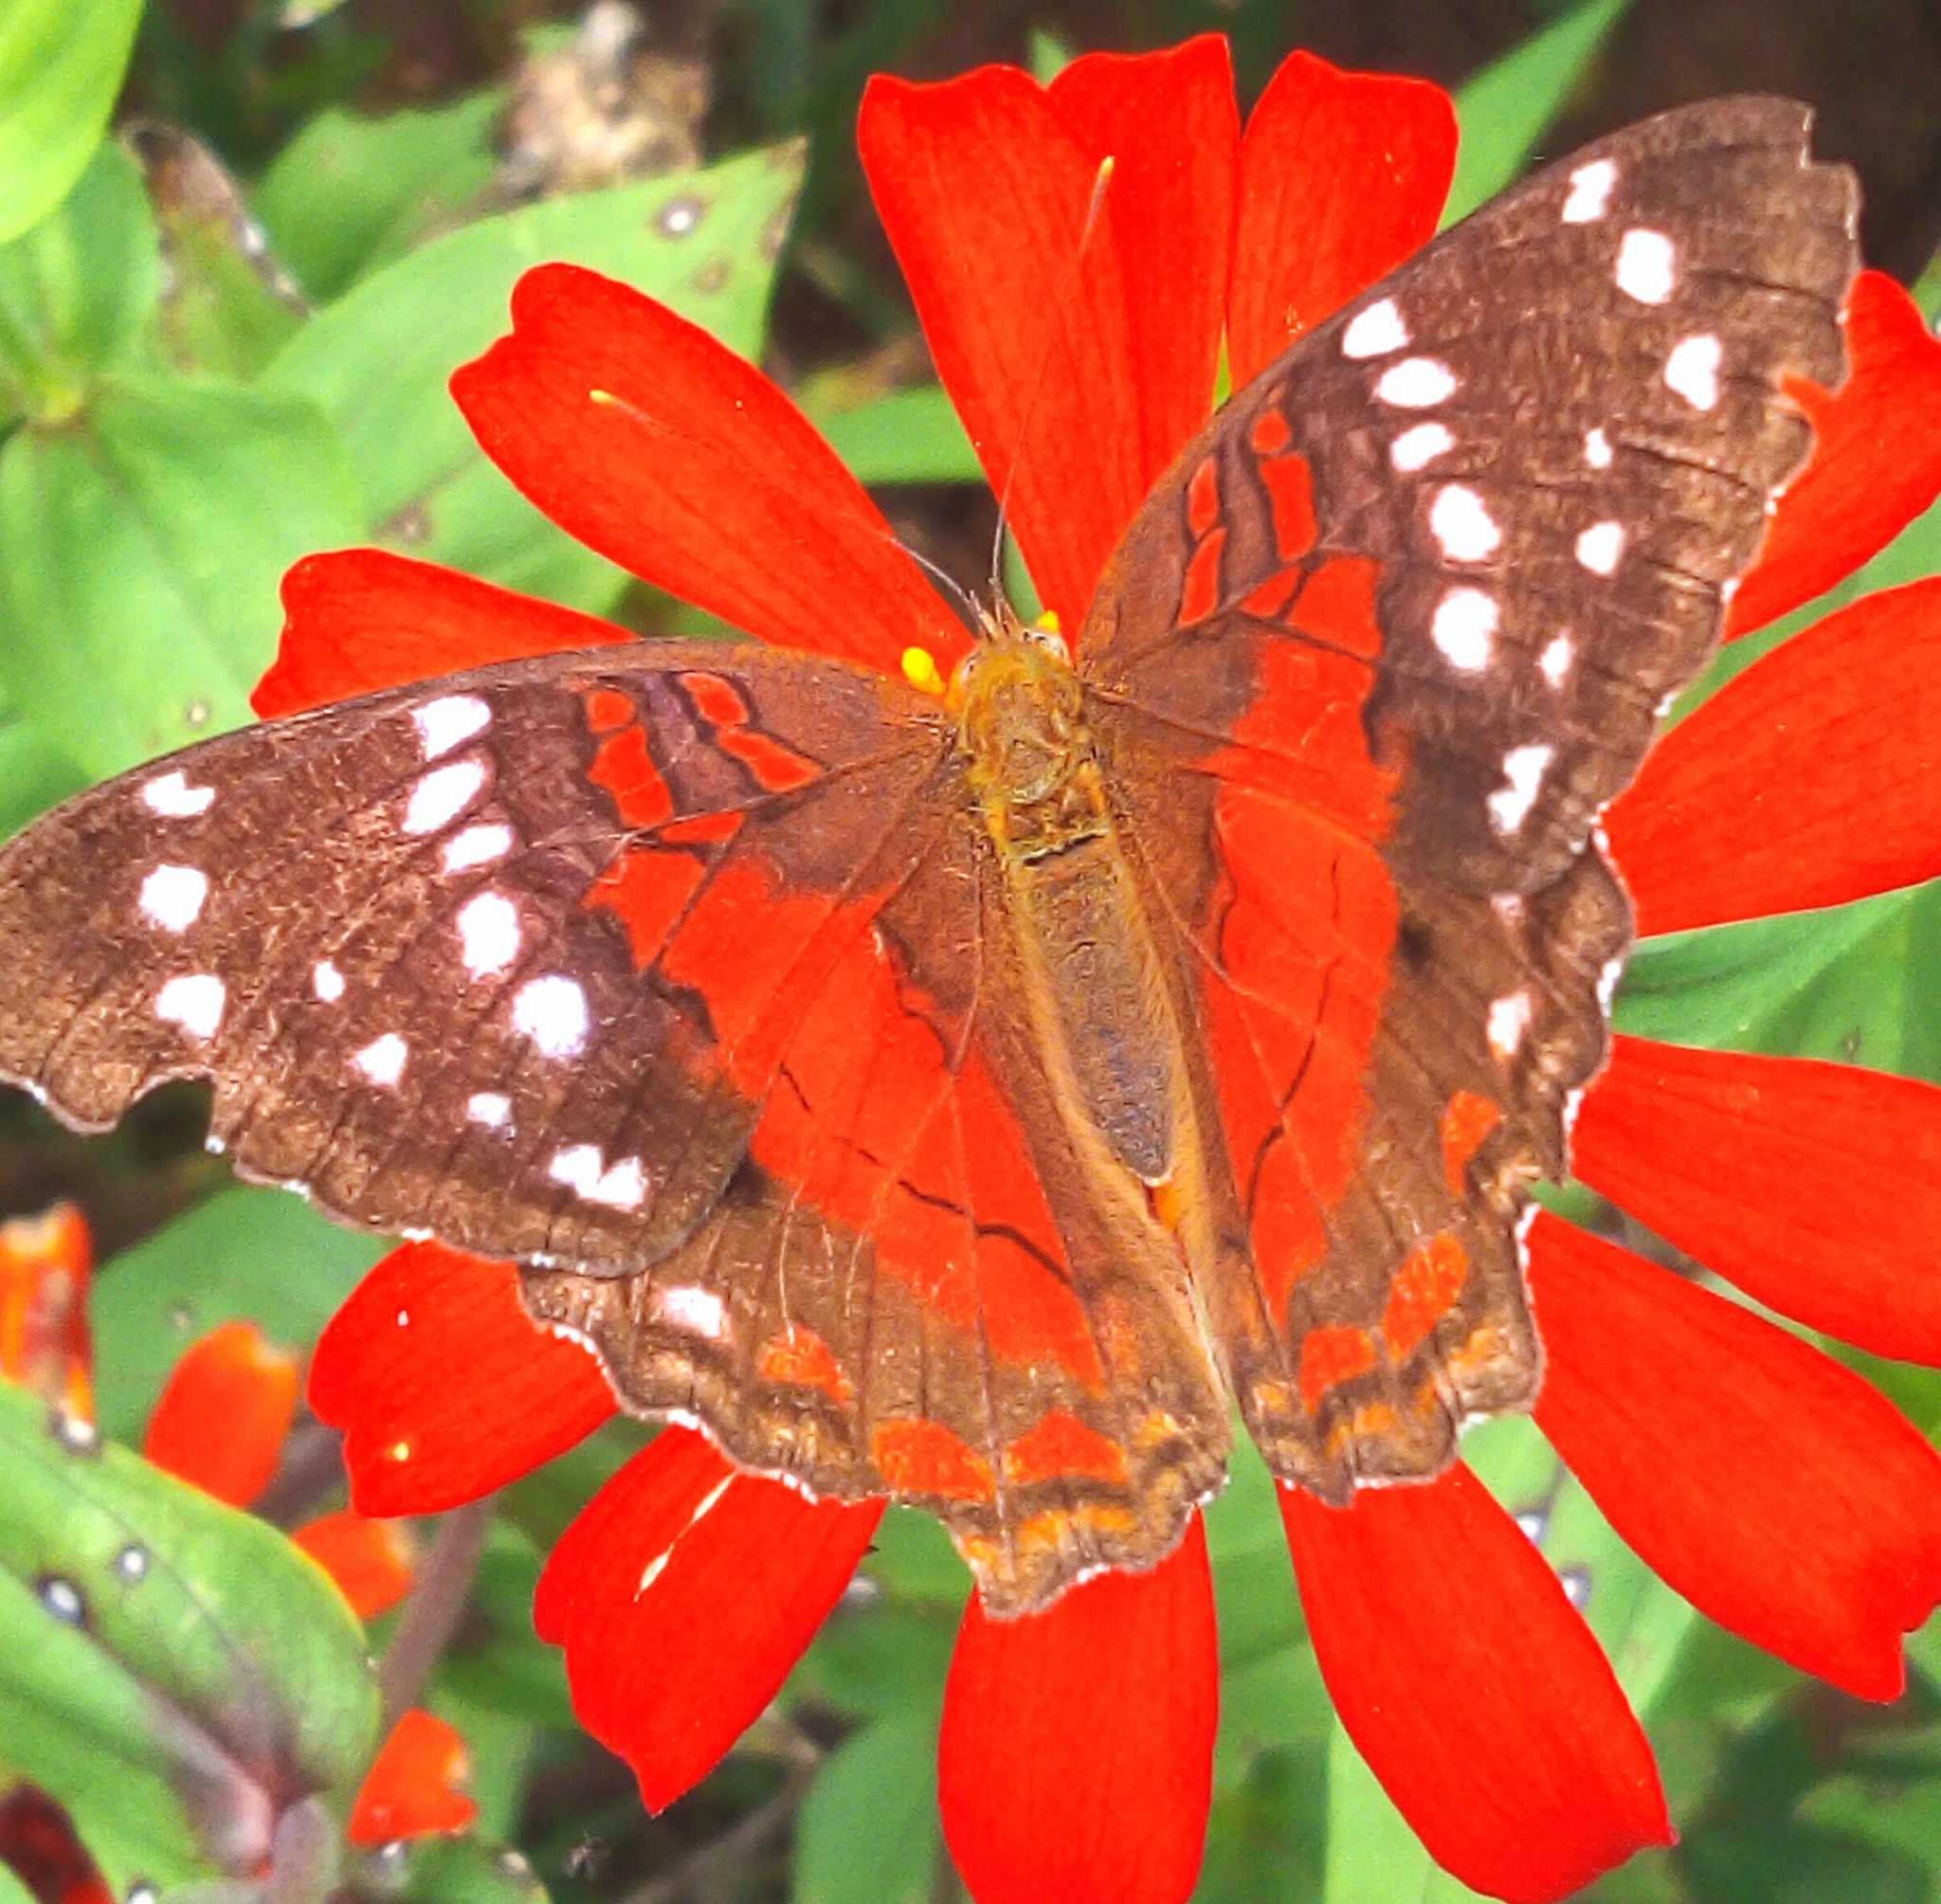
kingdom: Animalia
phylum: Arthropoda
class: Insecta
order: Lepidoptera
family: Nymphalidae
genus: Anartia
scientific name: Anartia amathea
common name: Red peacock
